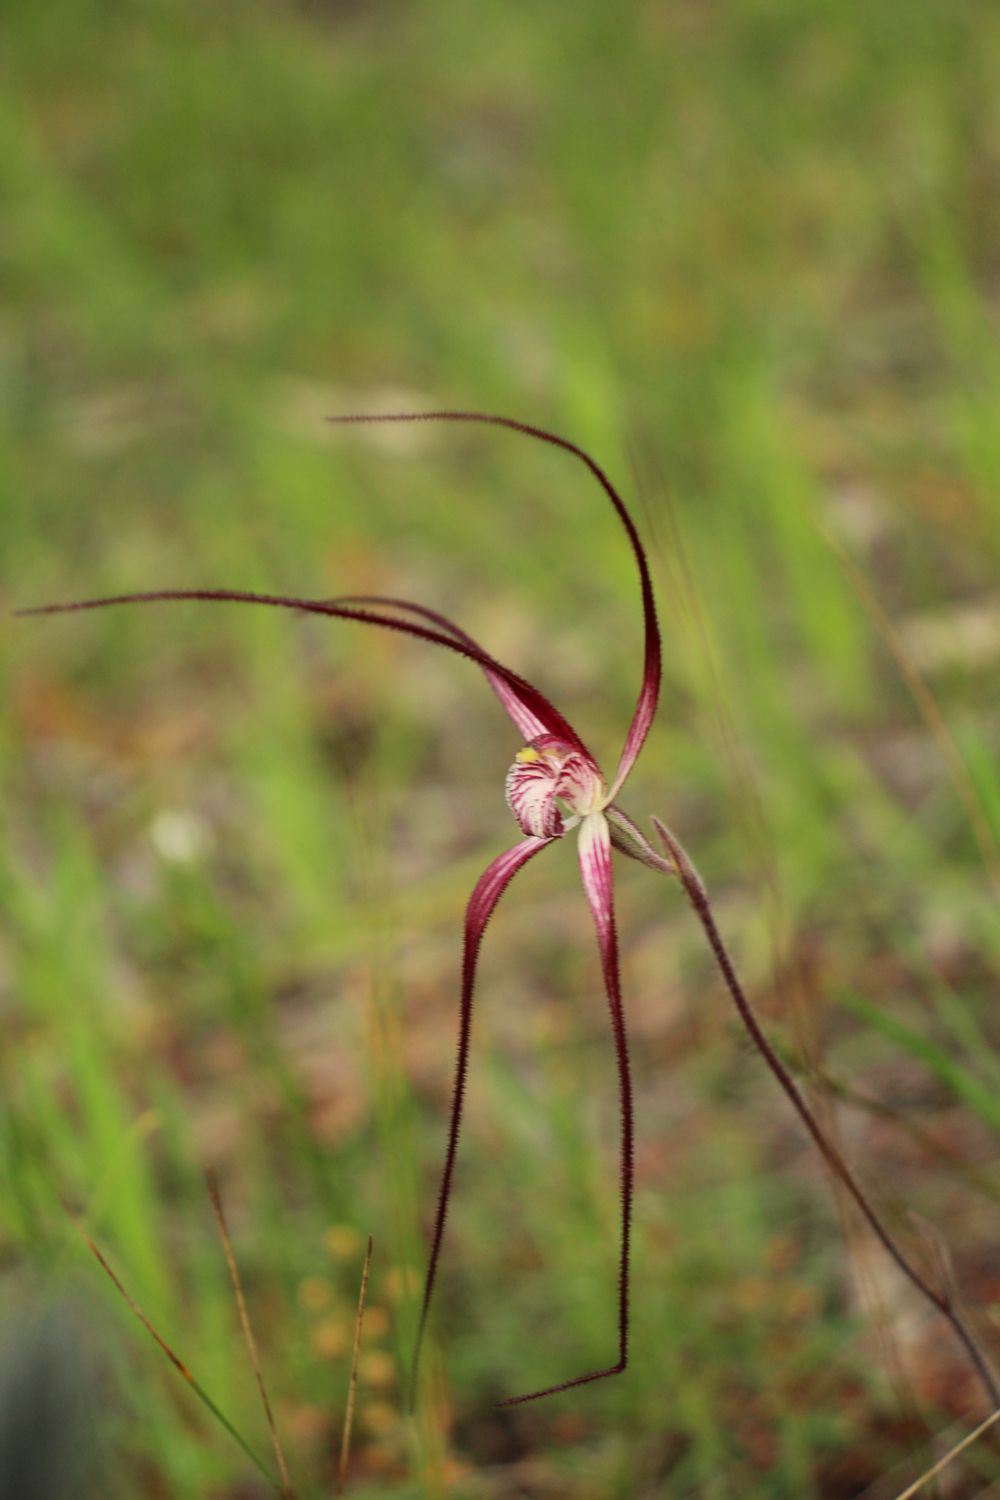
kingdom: Plantae
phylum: Tracheophyta
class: Liliopsida
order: Asparagales
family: Orchidaceae
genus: Caladenia
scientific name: Caladenia polychroma
